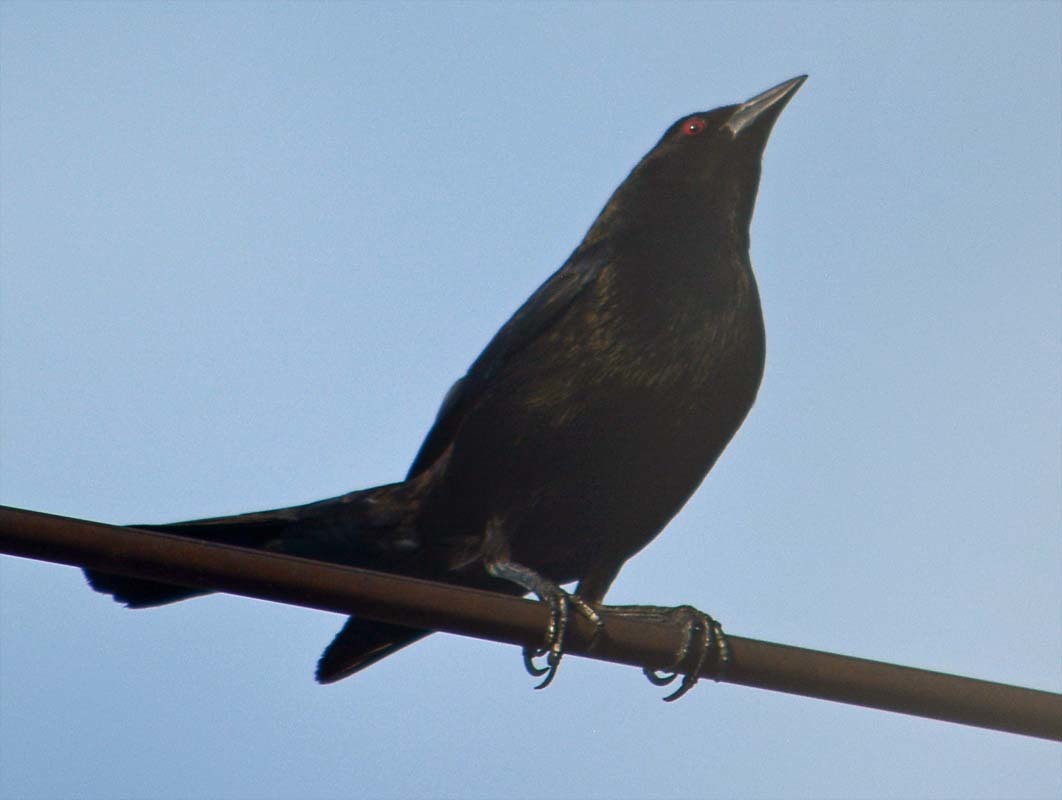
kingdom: Animalia
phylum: Chordata
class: Aves
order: Passeriformes
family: Icteridae
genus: Molothrus
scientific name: Molothrus aeneus
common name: Bronzed cowbird
